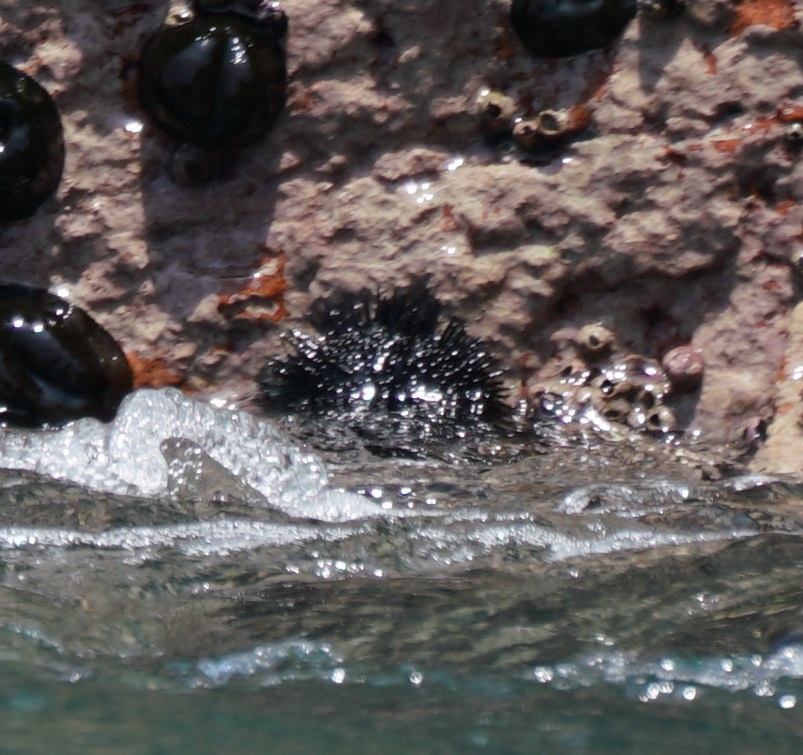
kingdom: Animalia
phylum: Echinodermata
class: Echinoidea
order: Arbacioida
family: Arbaciidae
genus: Tetrapygus
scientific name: Tetrapygus niger
